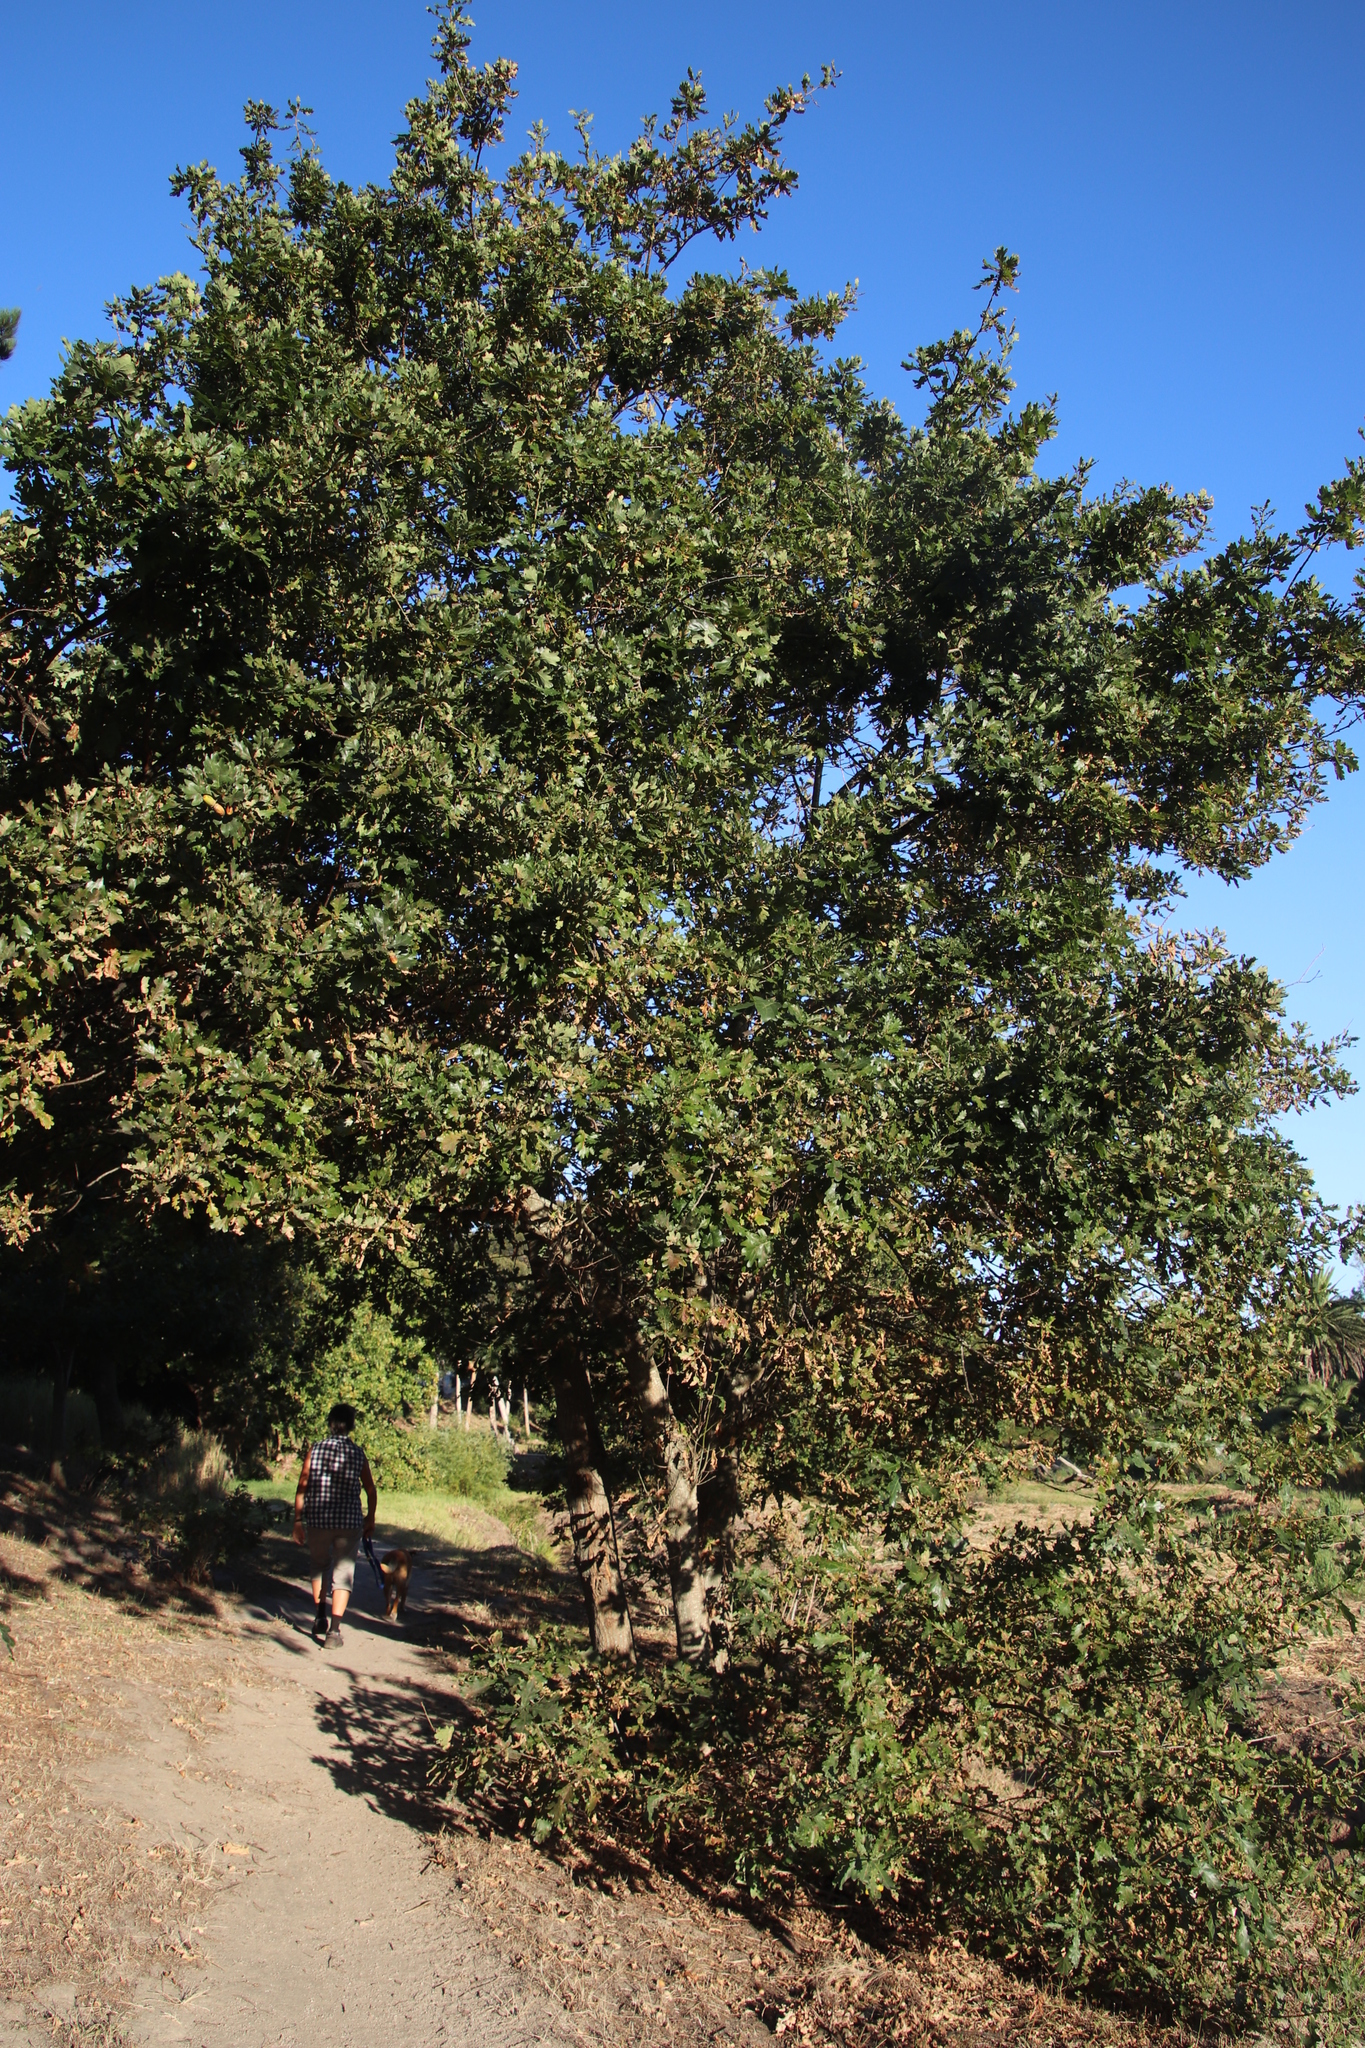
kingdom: Plantae
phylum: Tracheophyta
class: Magnoliopsida
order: Fagales
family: Fagaceae
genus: Quercus
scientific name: Quercus robur
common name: Pedunculate oak
